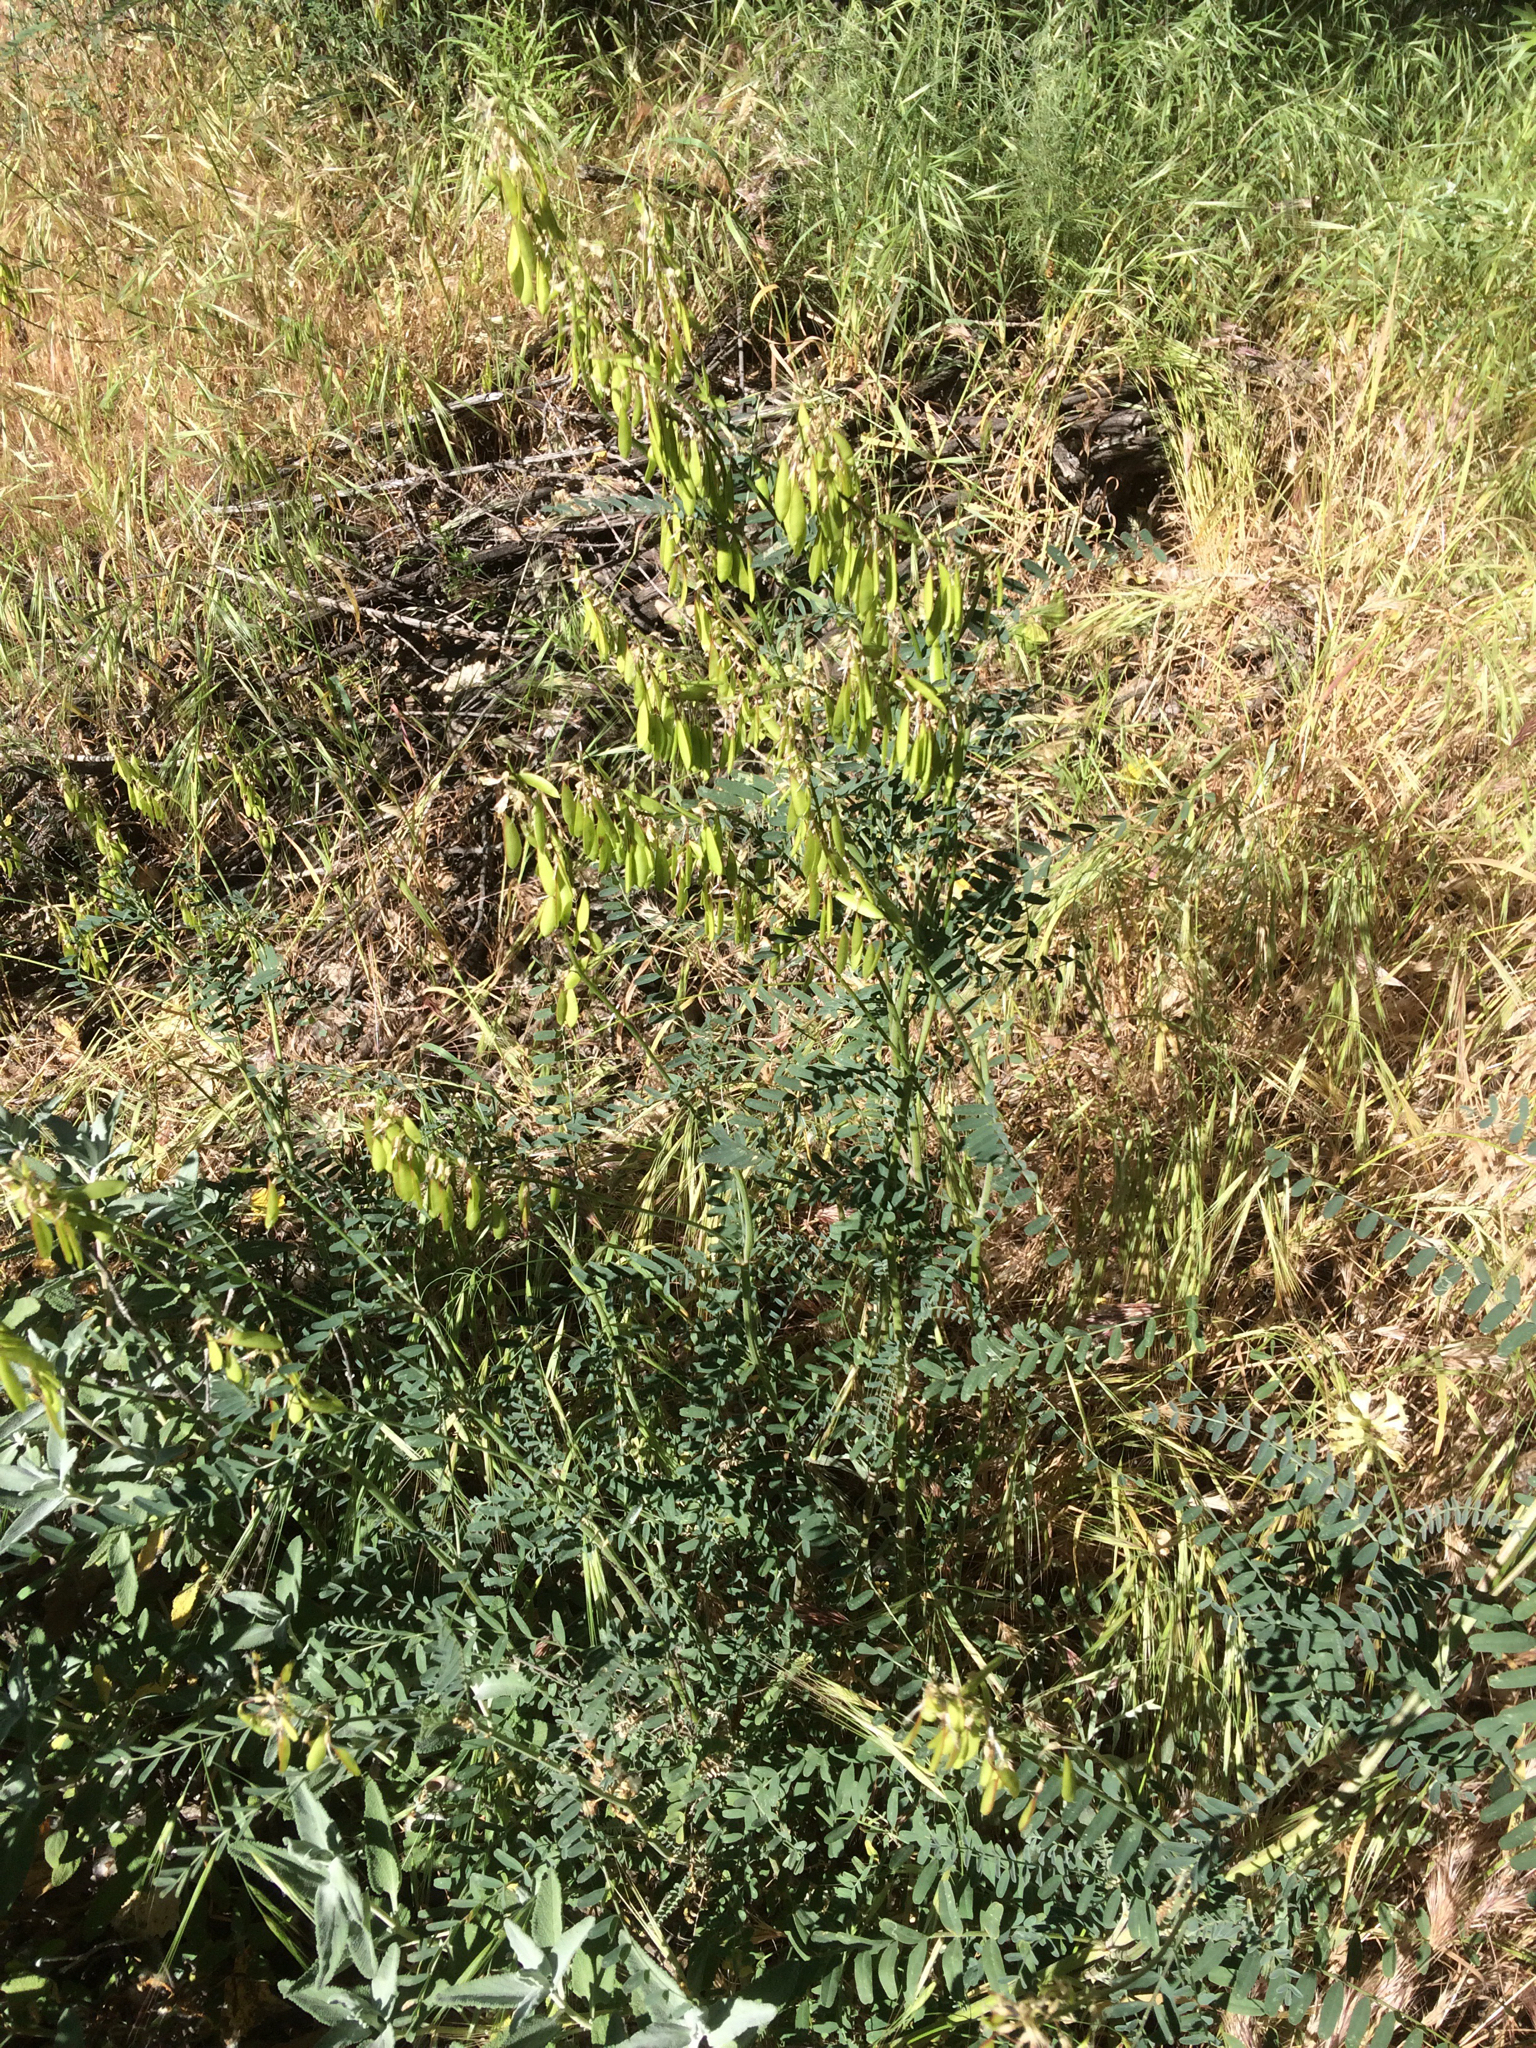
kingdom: Plantae
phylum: Tracheophyta
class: Magnoliopsida
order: Fabales
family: Fabaceae
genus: Astragalus
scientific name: Astragalus trichopodus
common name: Santa barbara milk-vetch
